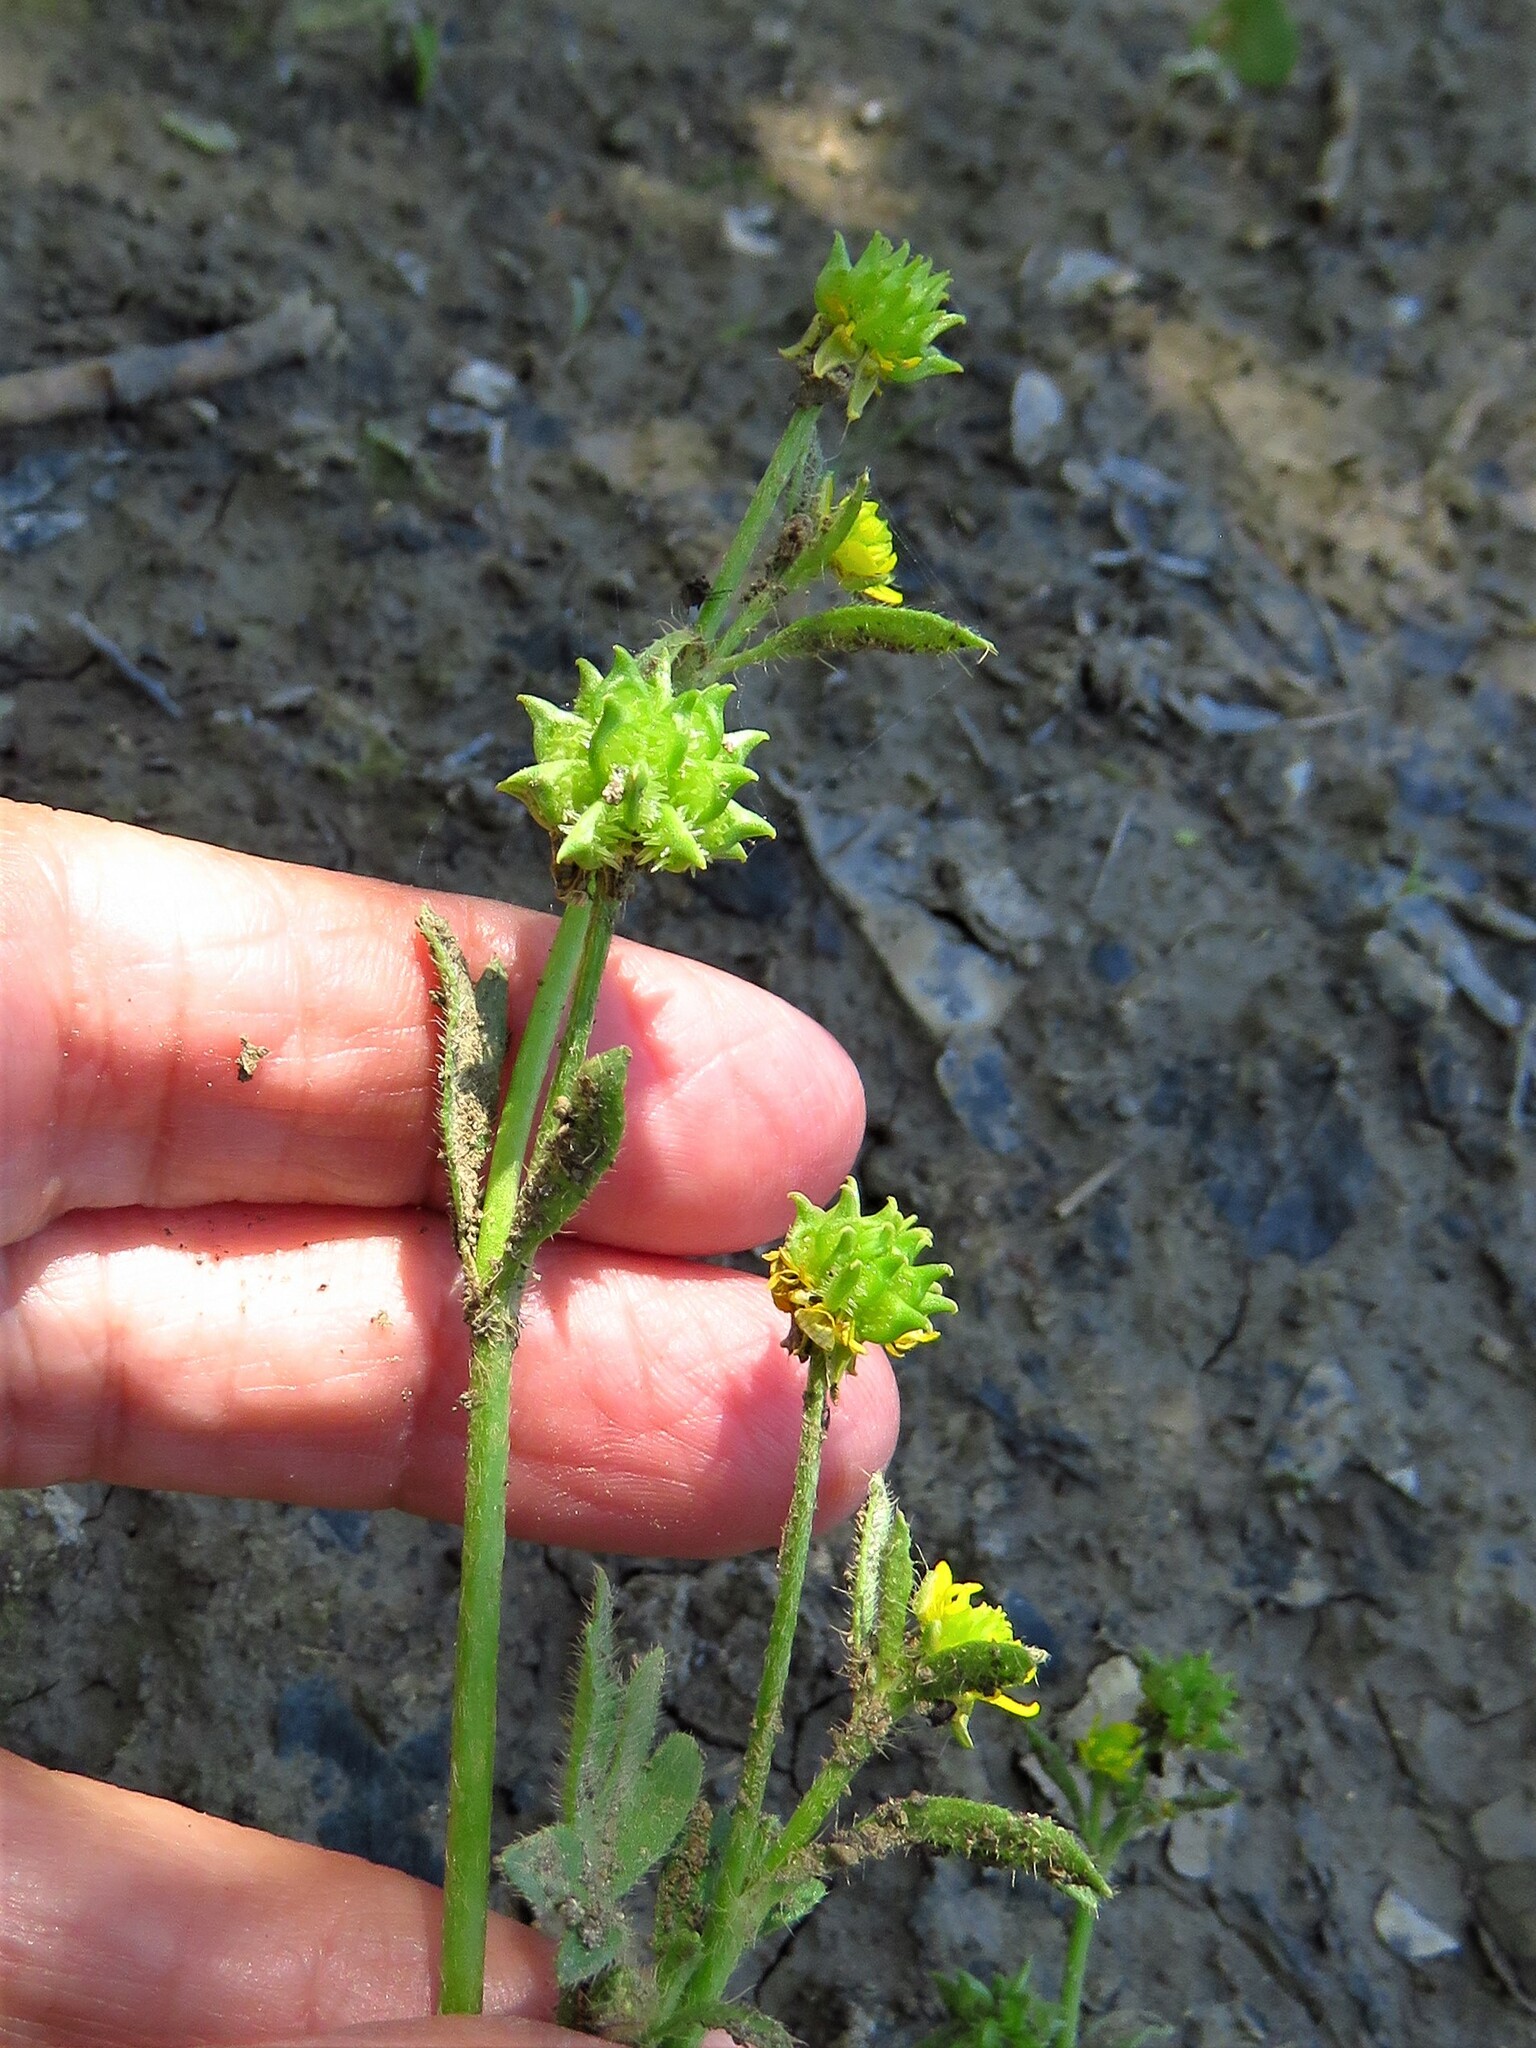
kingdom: Plantae
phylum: Tracheophyta
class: Magnoliopsida
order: Ranunculales
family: Ranunculaceae
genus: Ranunculus
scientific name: Ranunculus muricatus
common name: Rough-fruited buttercup
